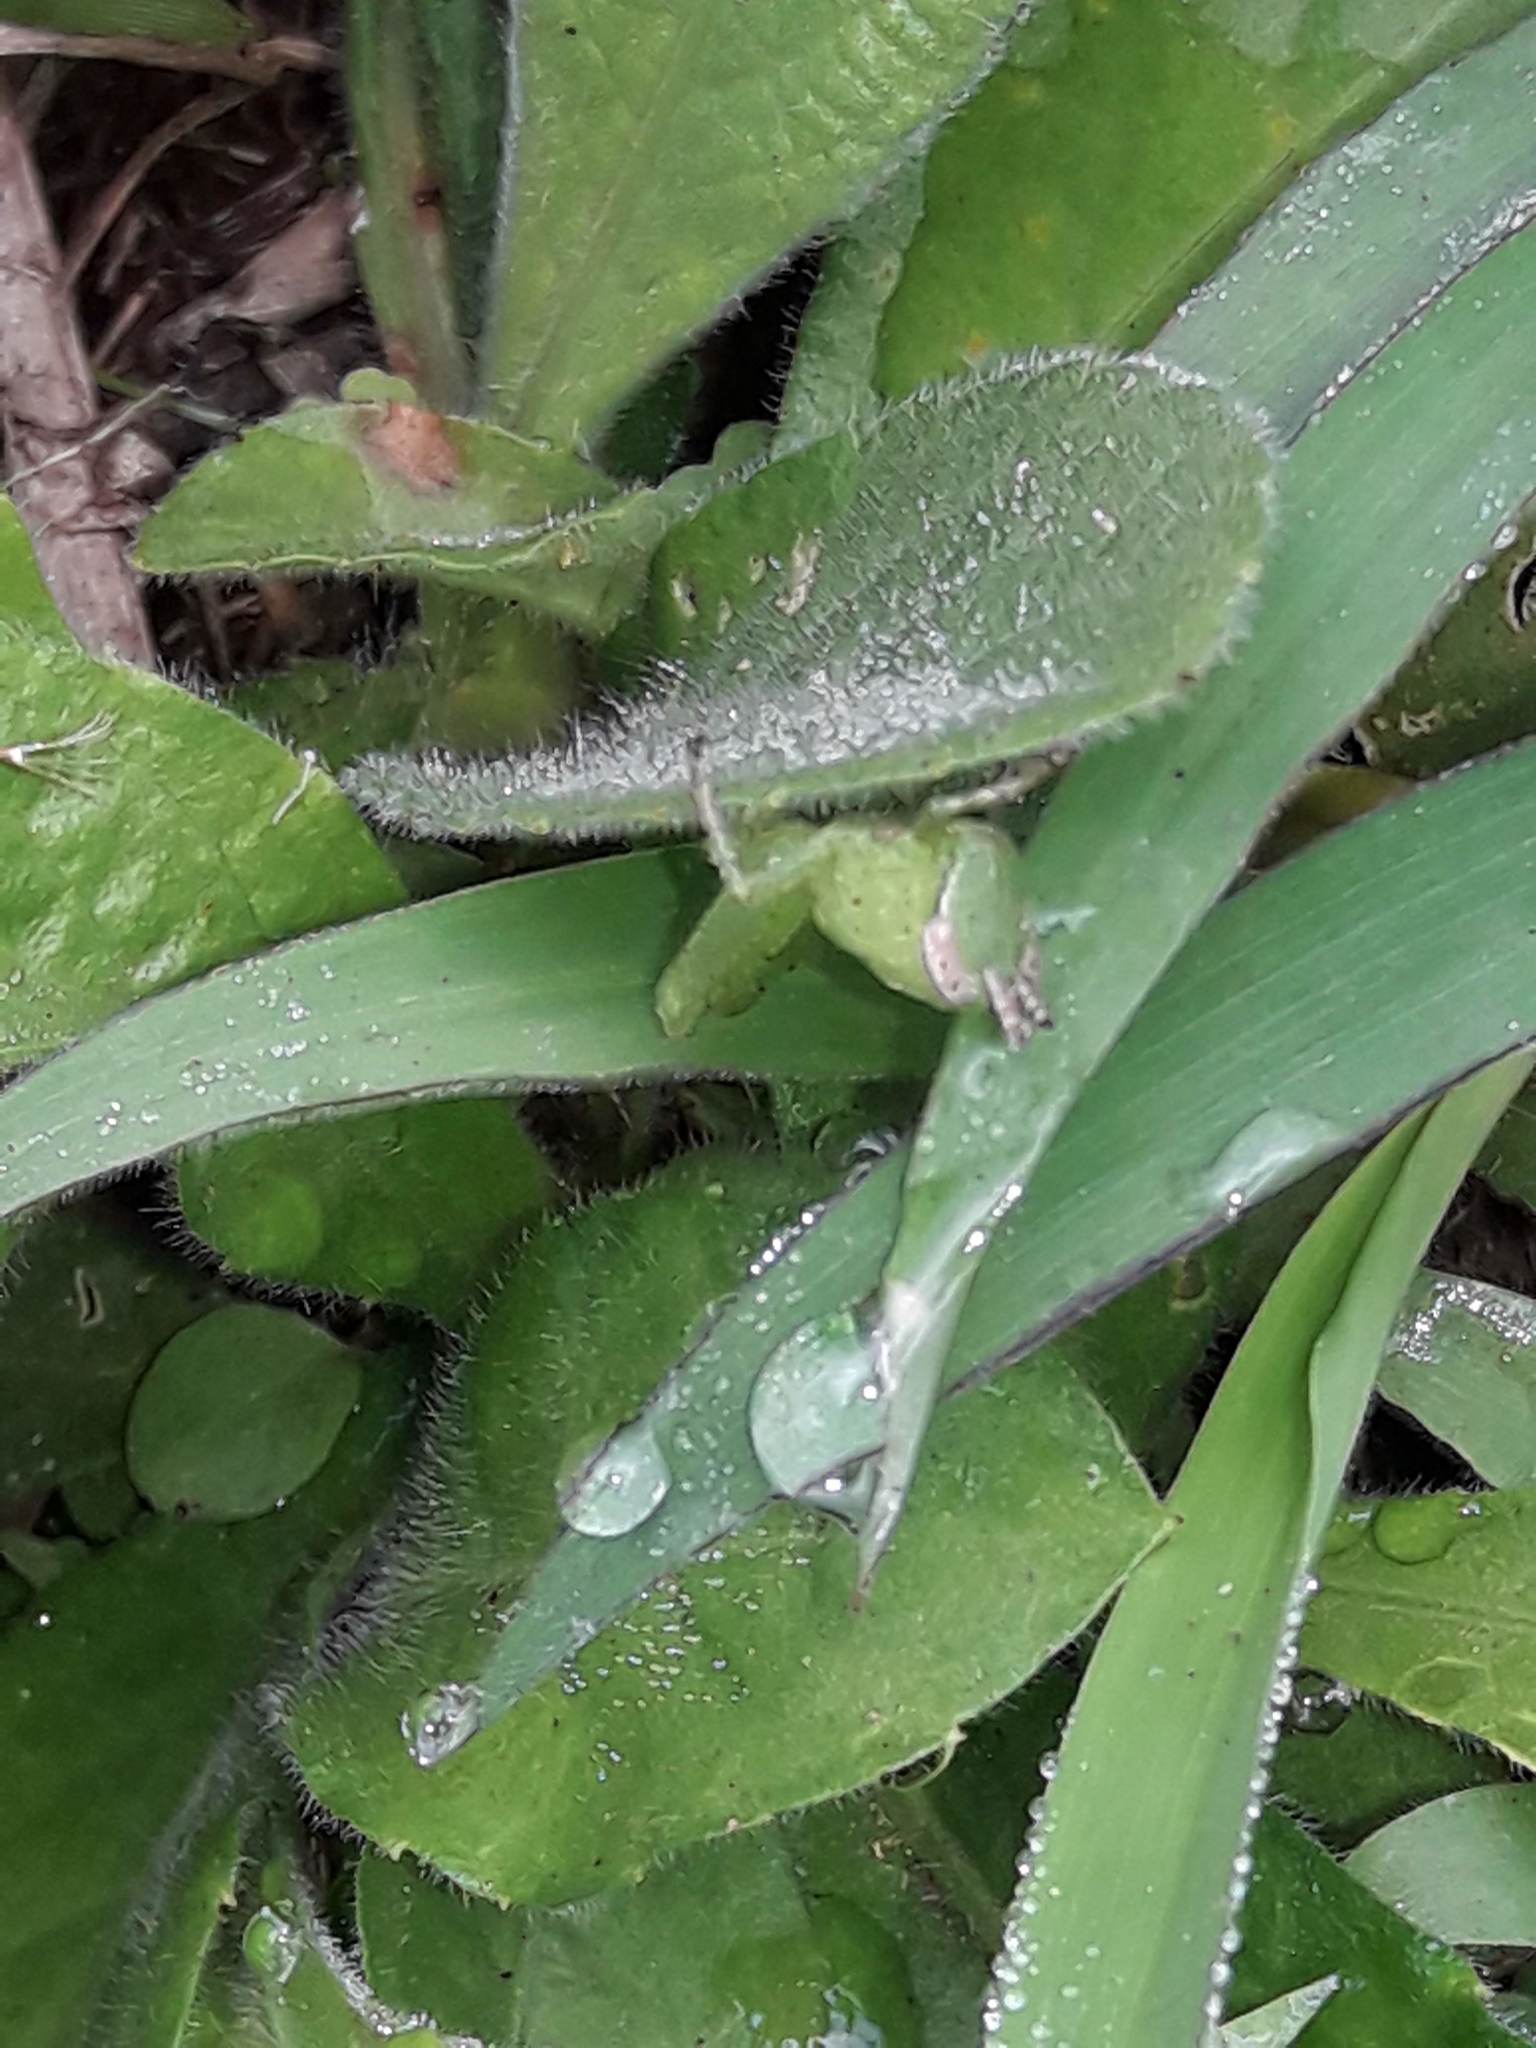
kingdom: Animalia
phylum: Arthropoda
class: Insecta
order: Orthoptera
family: Acrididae
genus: Abracris
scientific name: Abracris flavolineata
